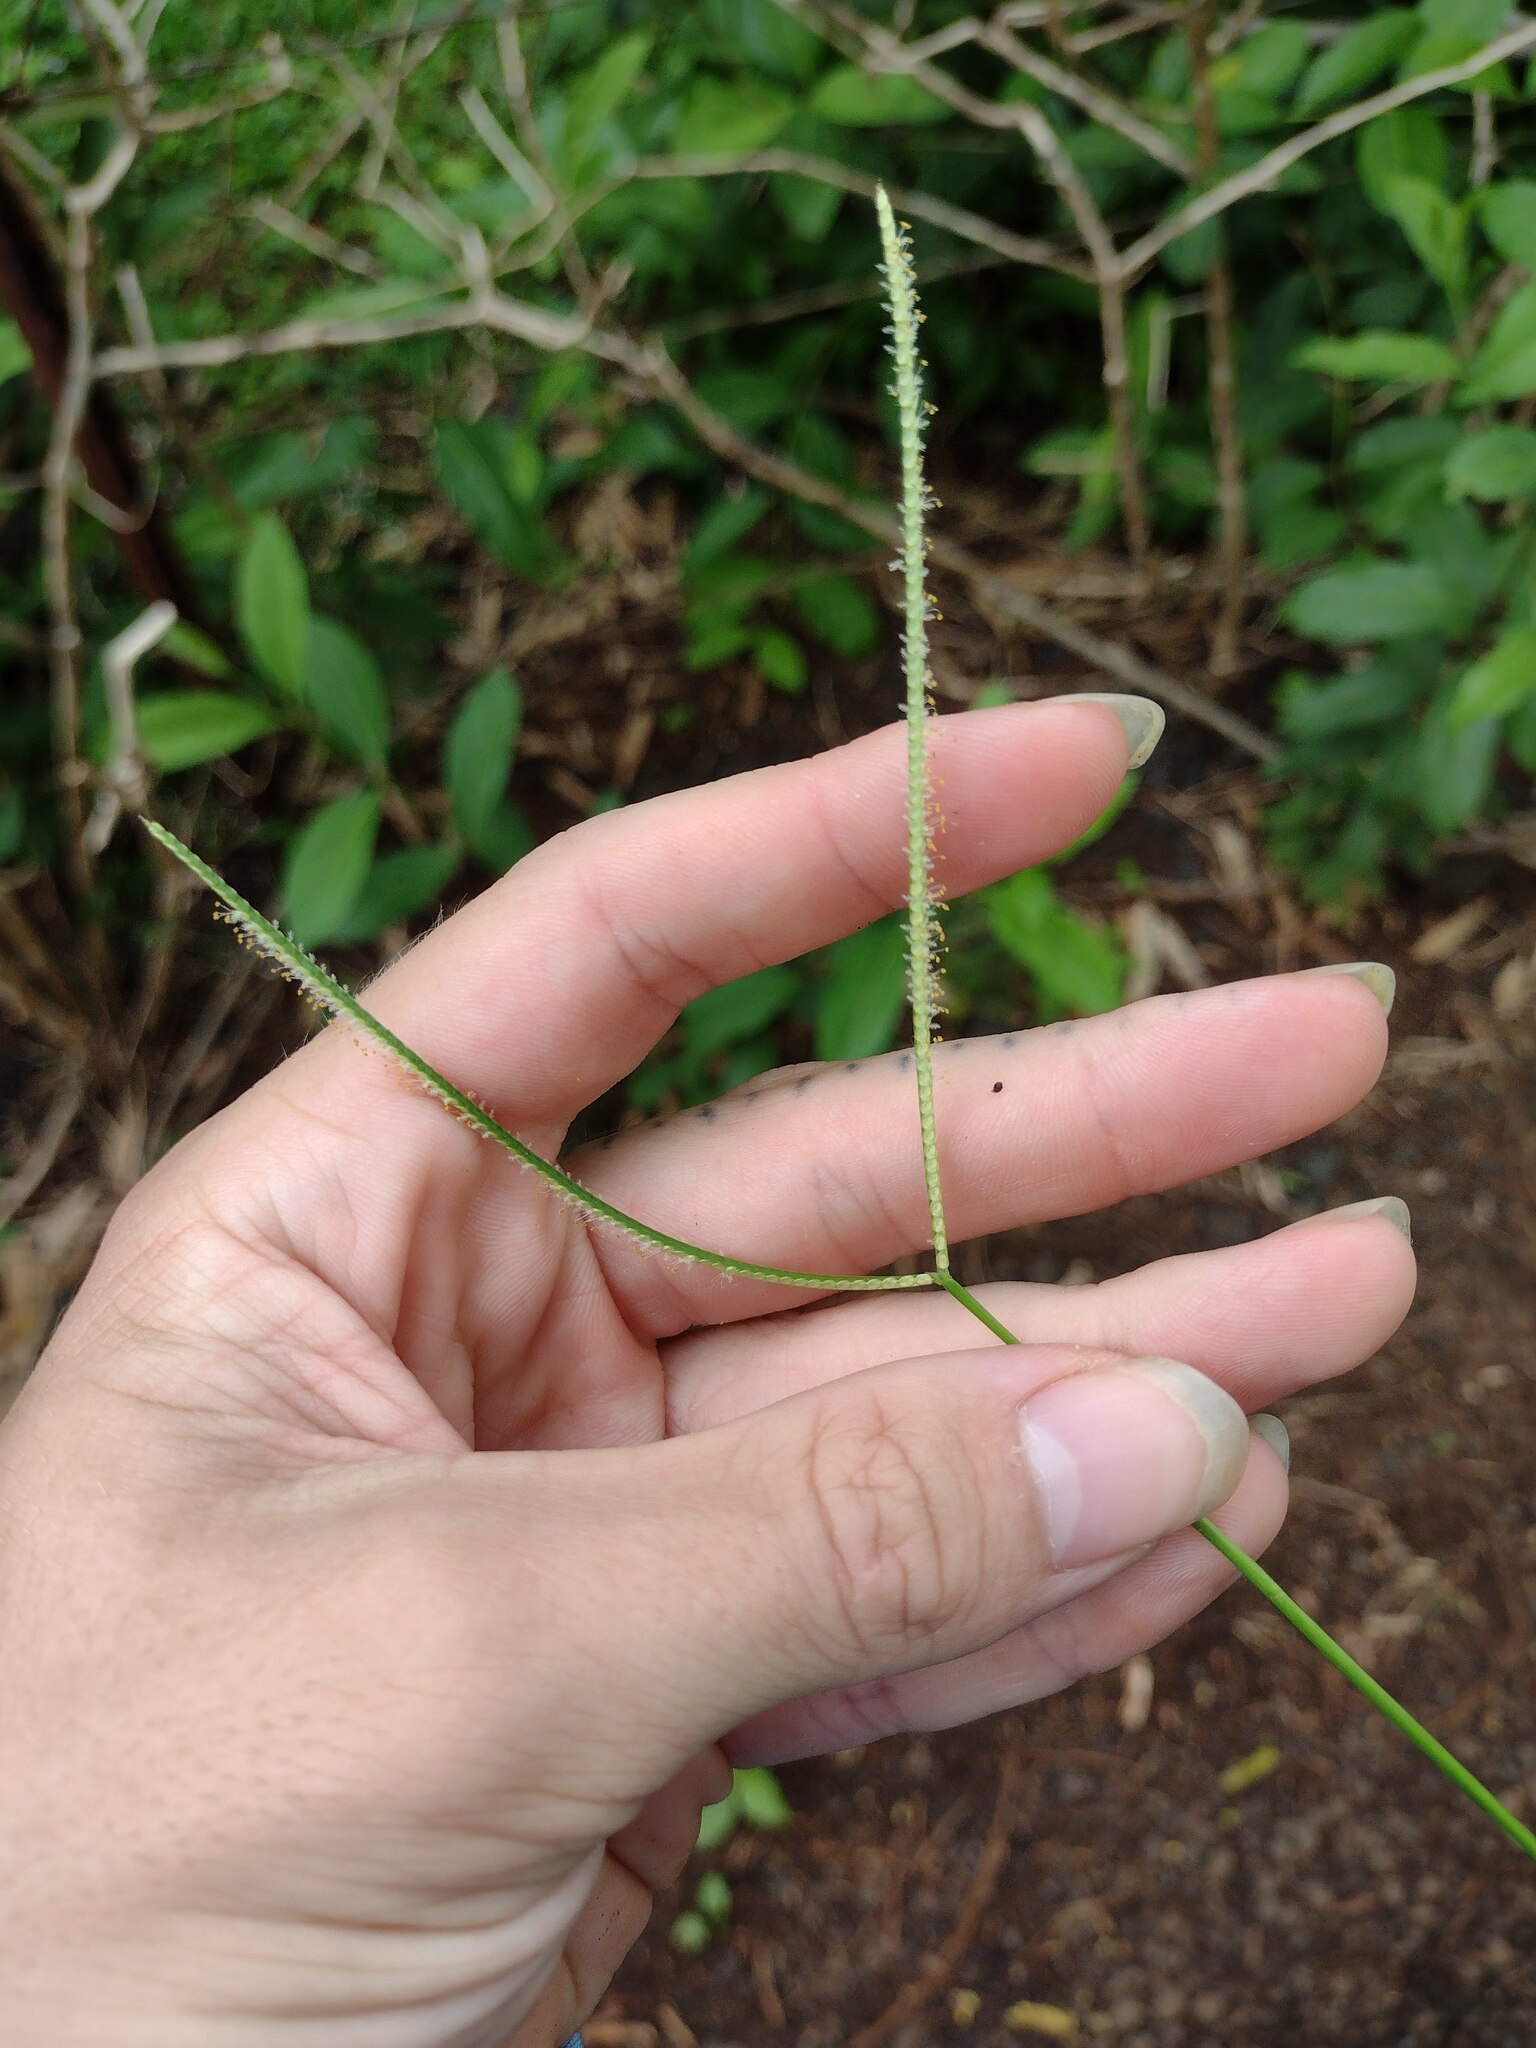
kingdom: Plantae
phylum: Tracheophyta
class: Liliopsida
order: Poales
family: Poaceae
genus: Paspalum
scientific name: Paspalum conjugatum
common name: Hilograss
